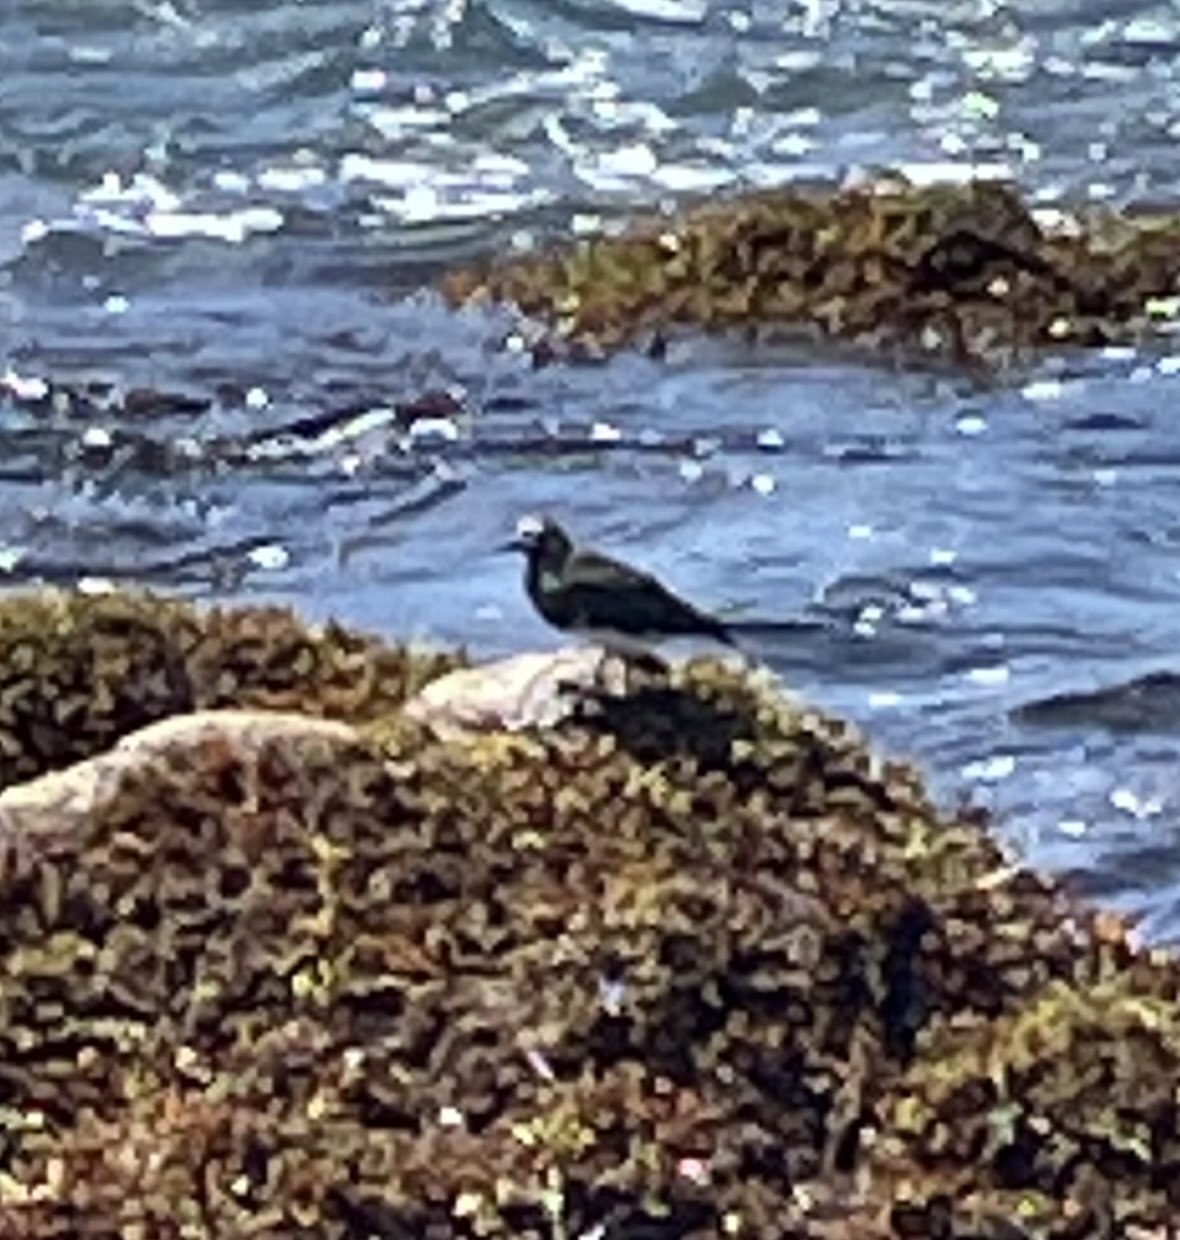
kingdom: Animalia
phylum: Chordata
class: Aves
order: Charadriiformes
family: Scolopacidae
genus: Arenaria
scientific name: Arenaria melanocephala
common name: Black turnstone
